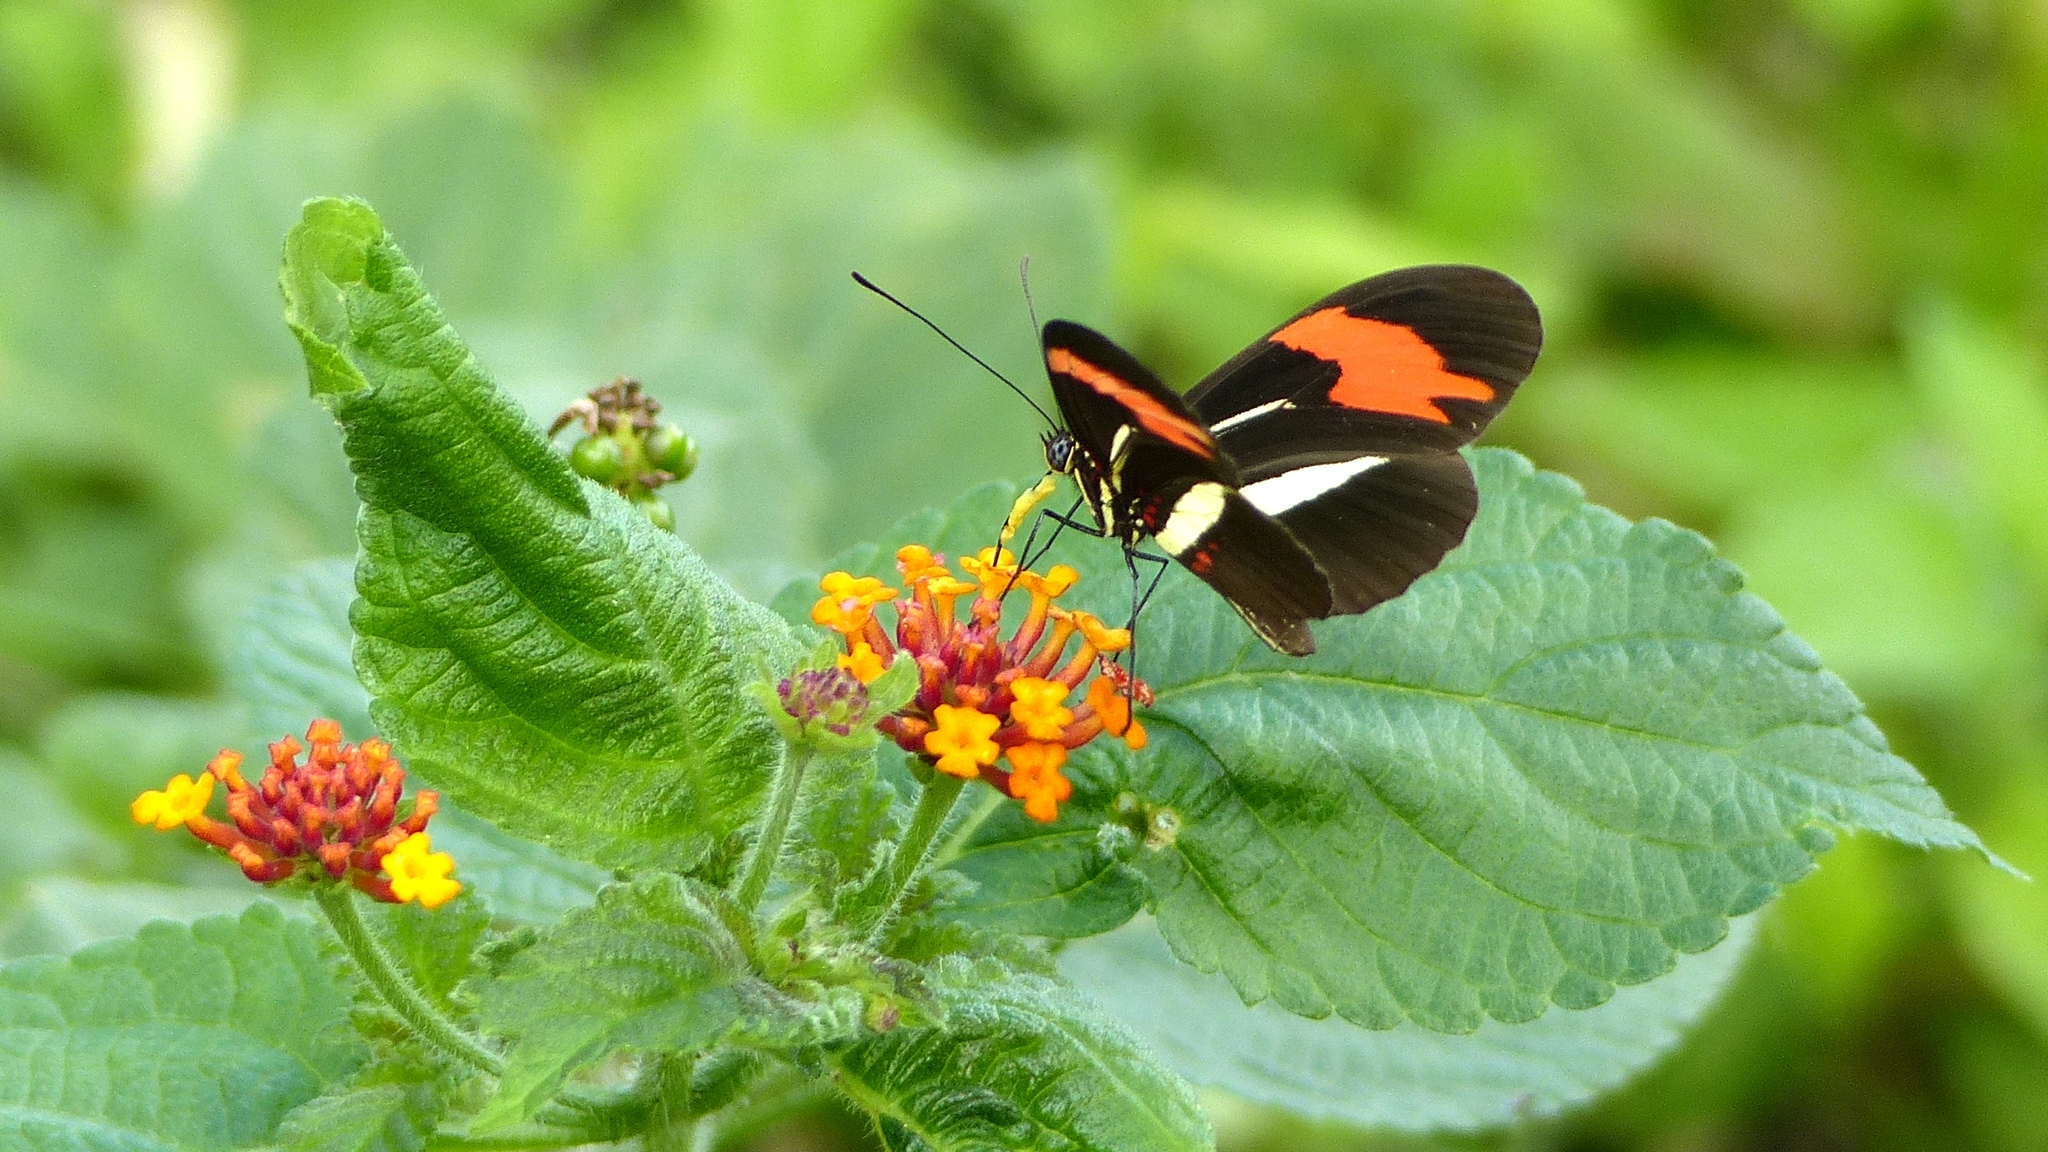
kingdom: Animalia
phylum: Arthropoda
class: Insecta
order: Lepidoptera
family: Nymphalidae
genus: Heliconius
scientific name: Heliconius erato
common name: Common patch longwing
